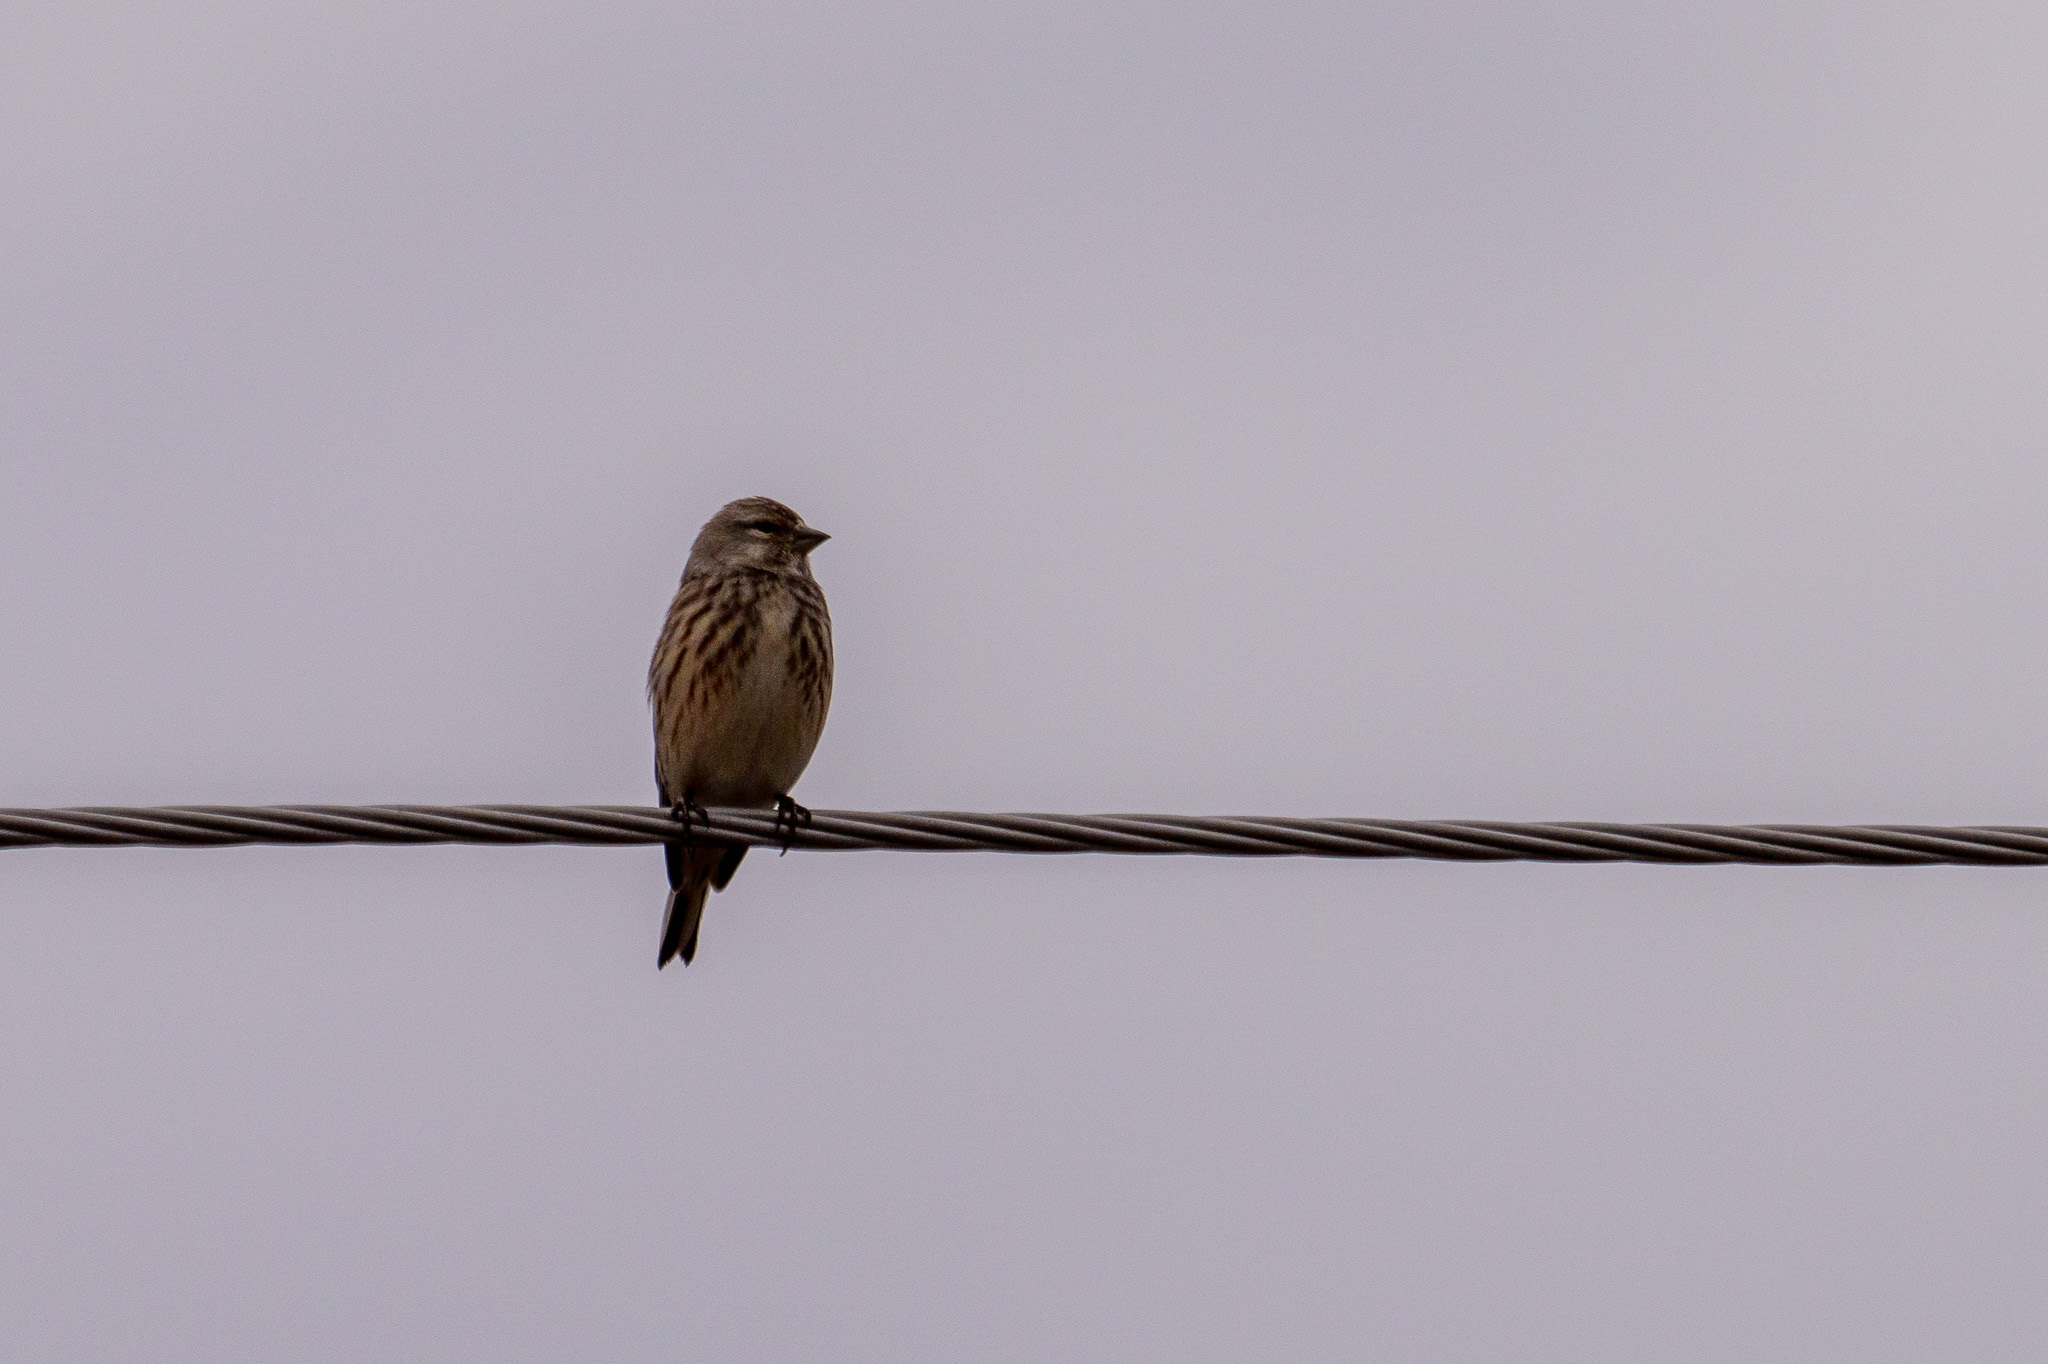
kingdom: Animalia
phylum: Chordata
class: Aves
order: Passeriformes
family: Fringillidae
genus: Linaria
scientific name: Linaria cannabina
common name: Common linnet
